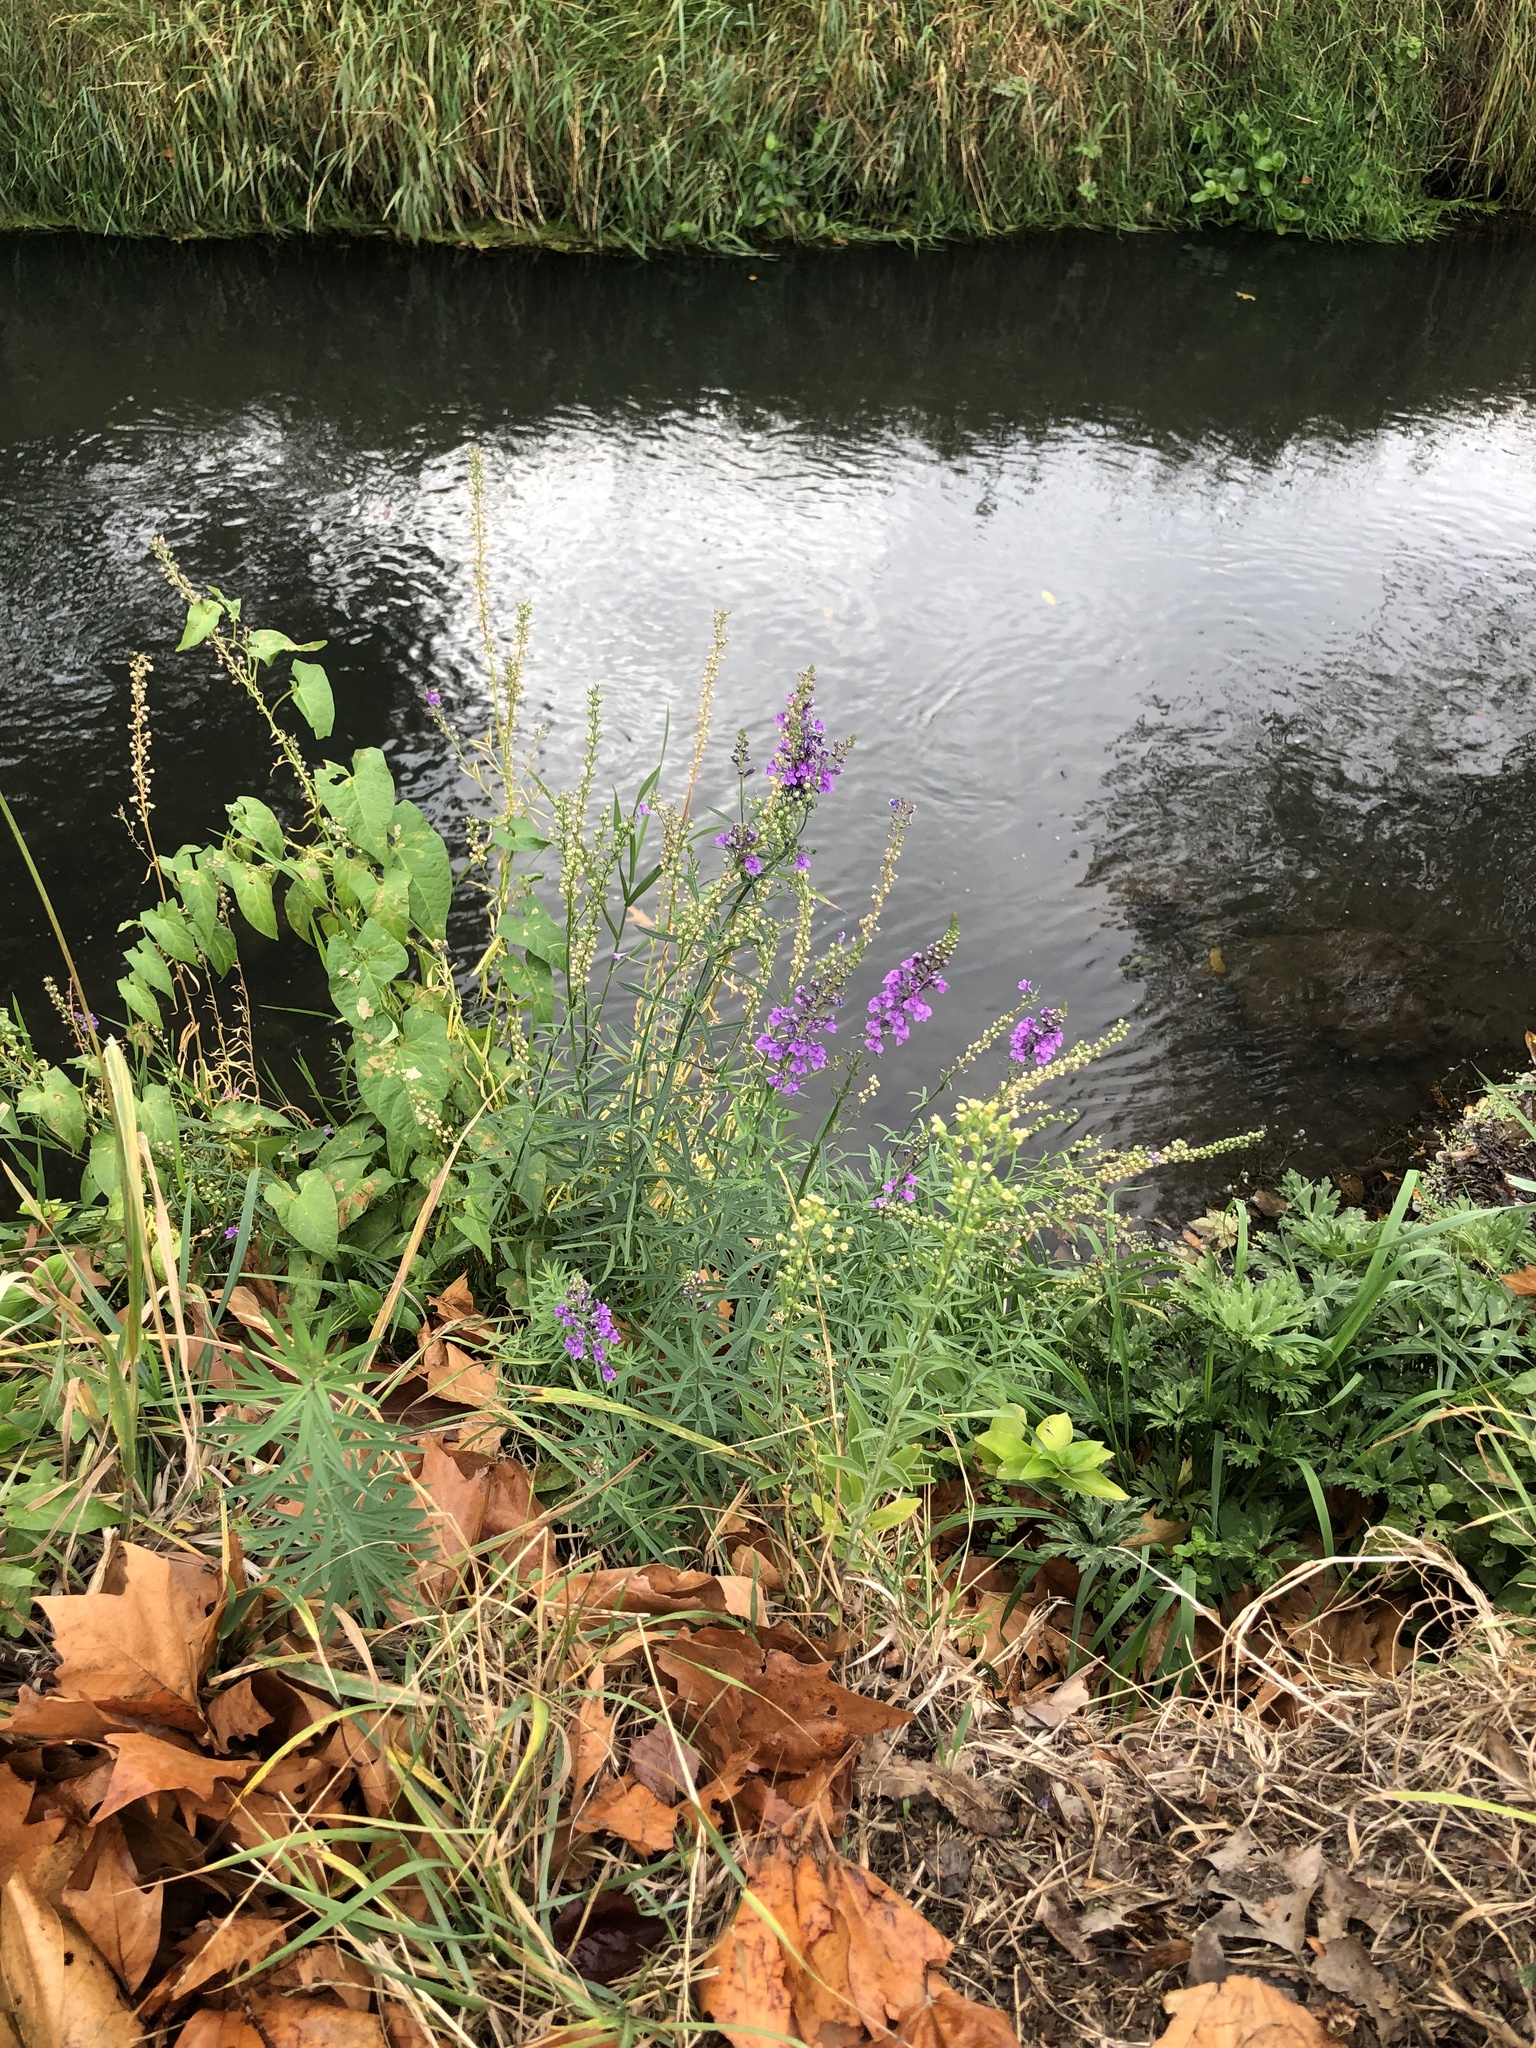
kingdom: Plantae
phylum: Tracheophyta
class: Magnoliopsida
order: Lamiales
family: Plantaginaceae
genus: Linaria
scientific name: Linaria purpurea
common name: Purple toadflax
